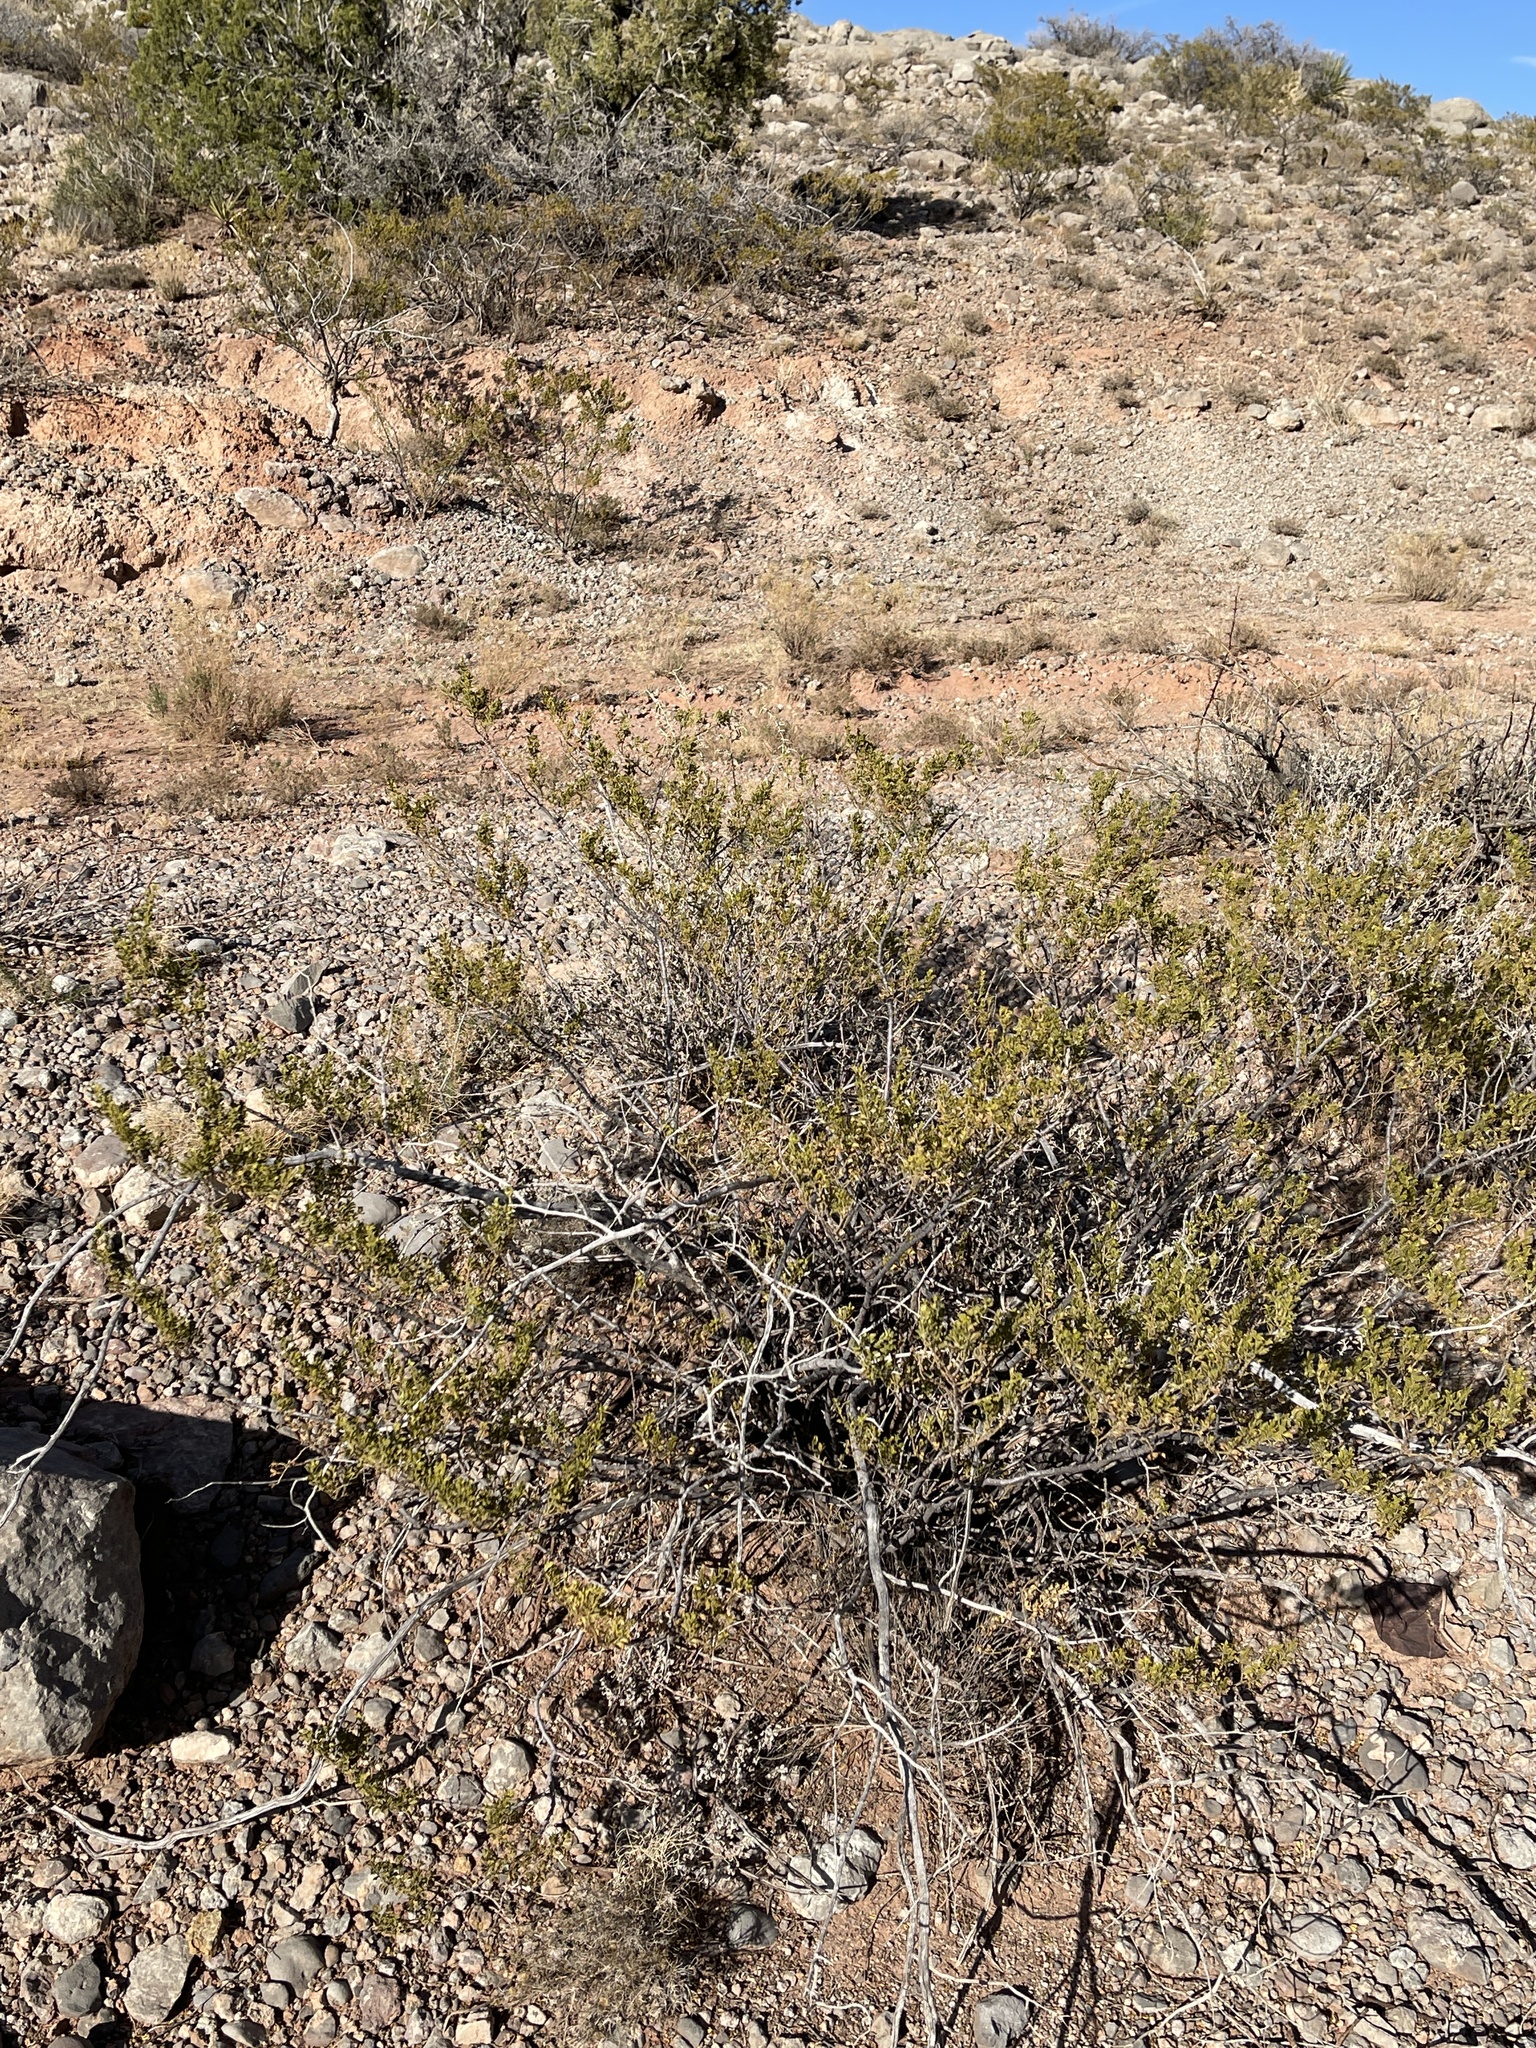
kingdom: Plantae
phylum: Tracheophyta
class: Magnoliopsida
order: Zygophyllales
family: Zygophyllaceae
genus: Larrea
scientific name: Larrea tridentata
